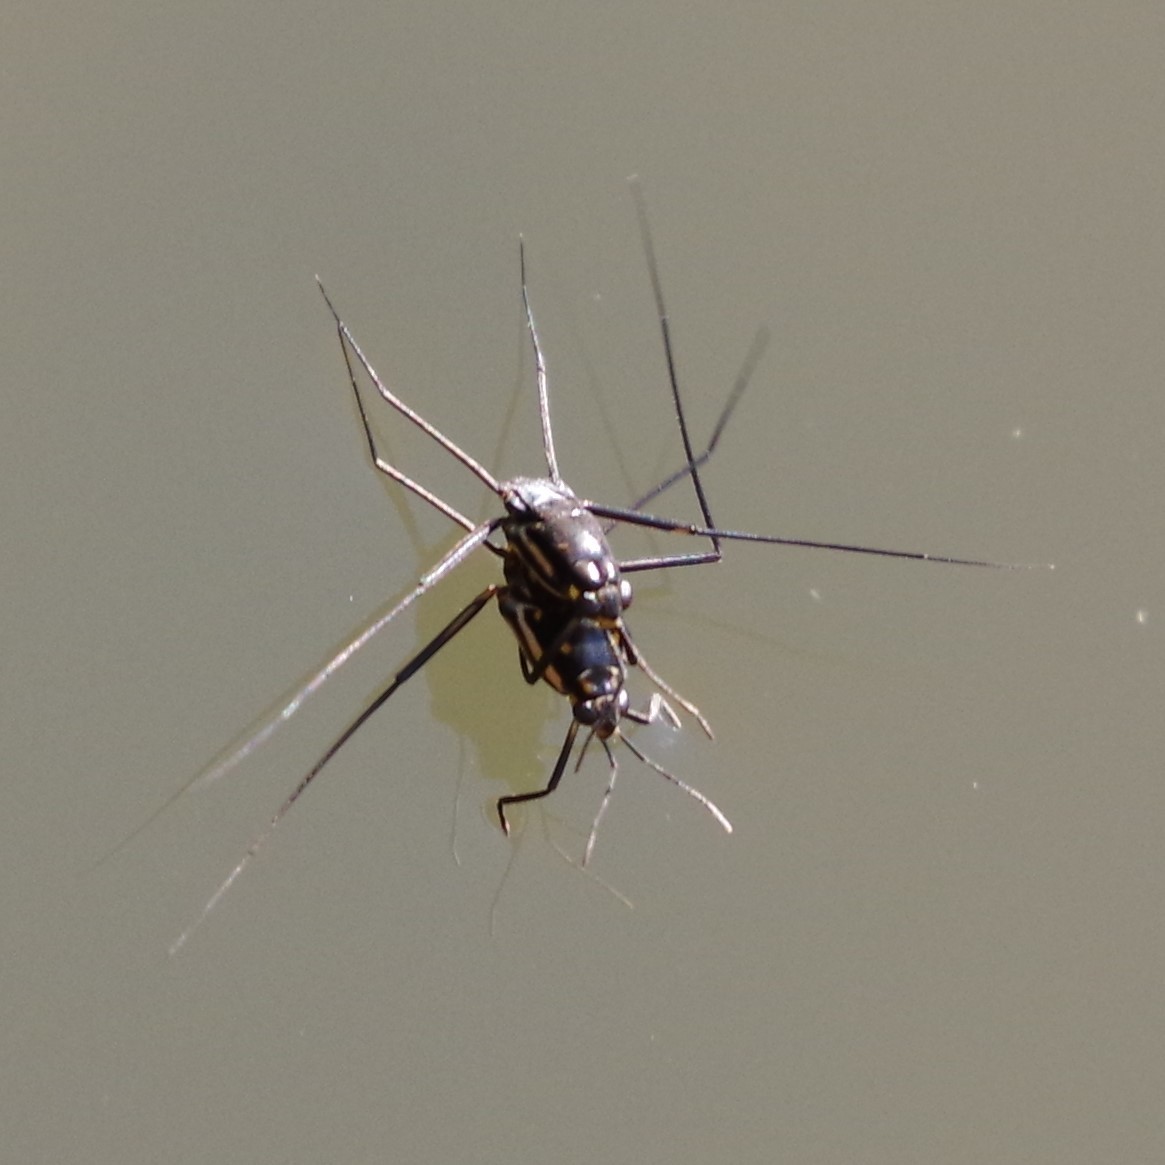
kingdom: Animalia
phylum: Arthropoda
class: Insecta
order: Hemiptera
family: Gerridae
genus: Trepobates
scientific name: Trepobates subnitidus
